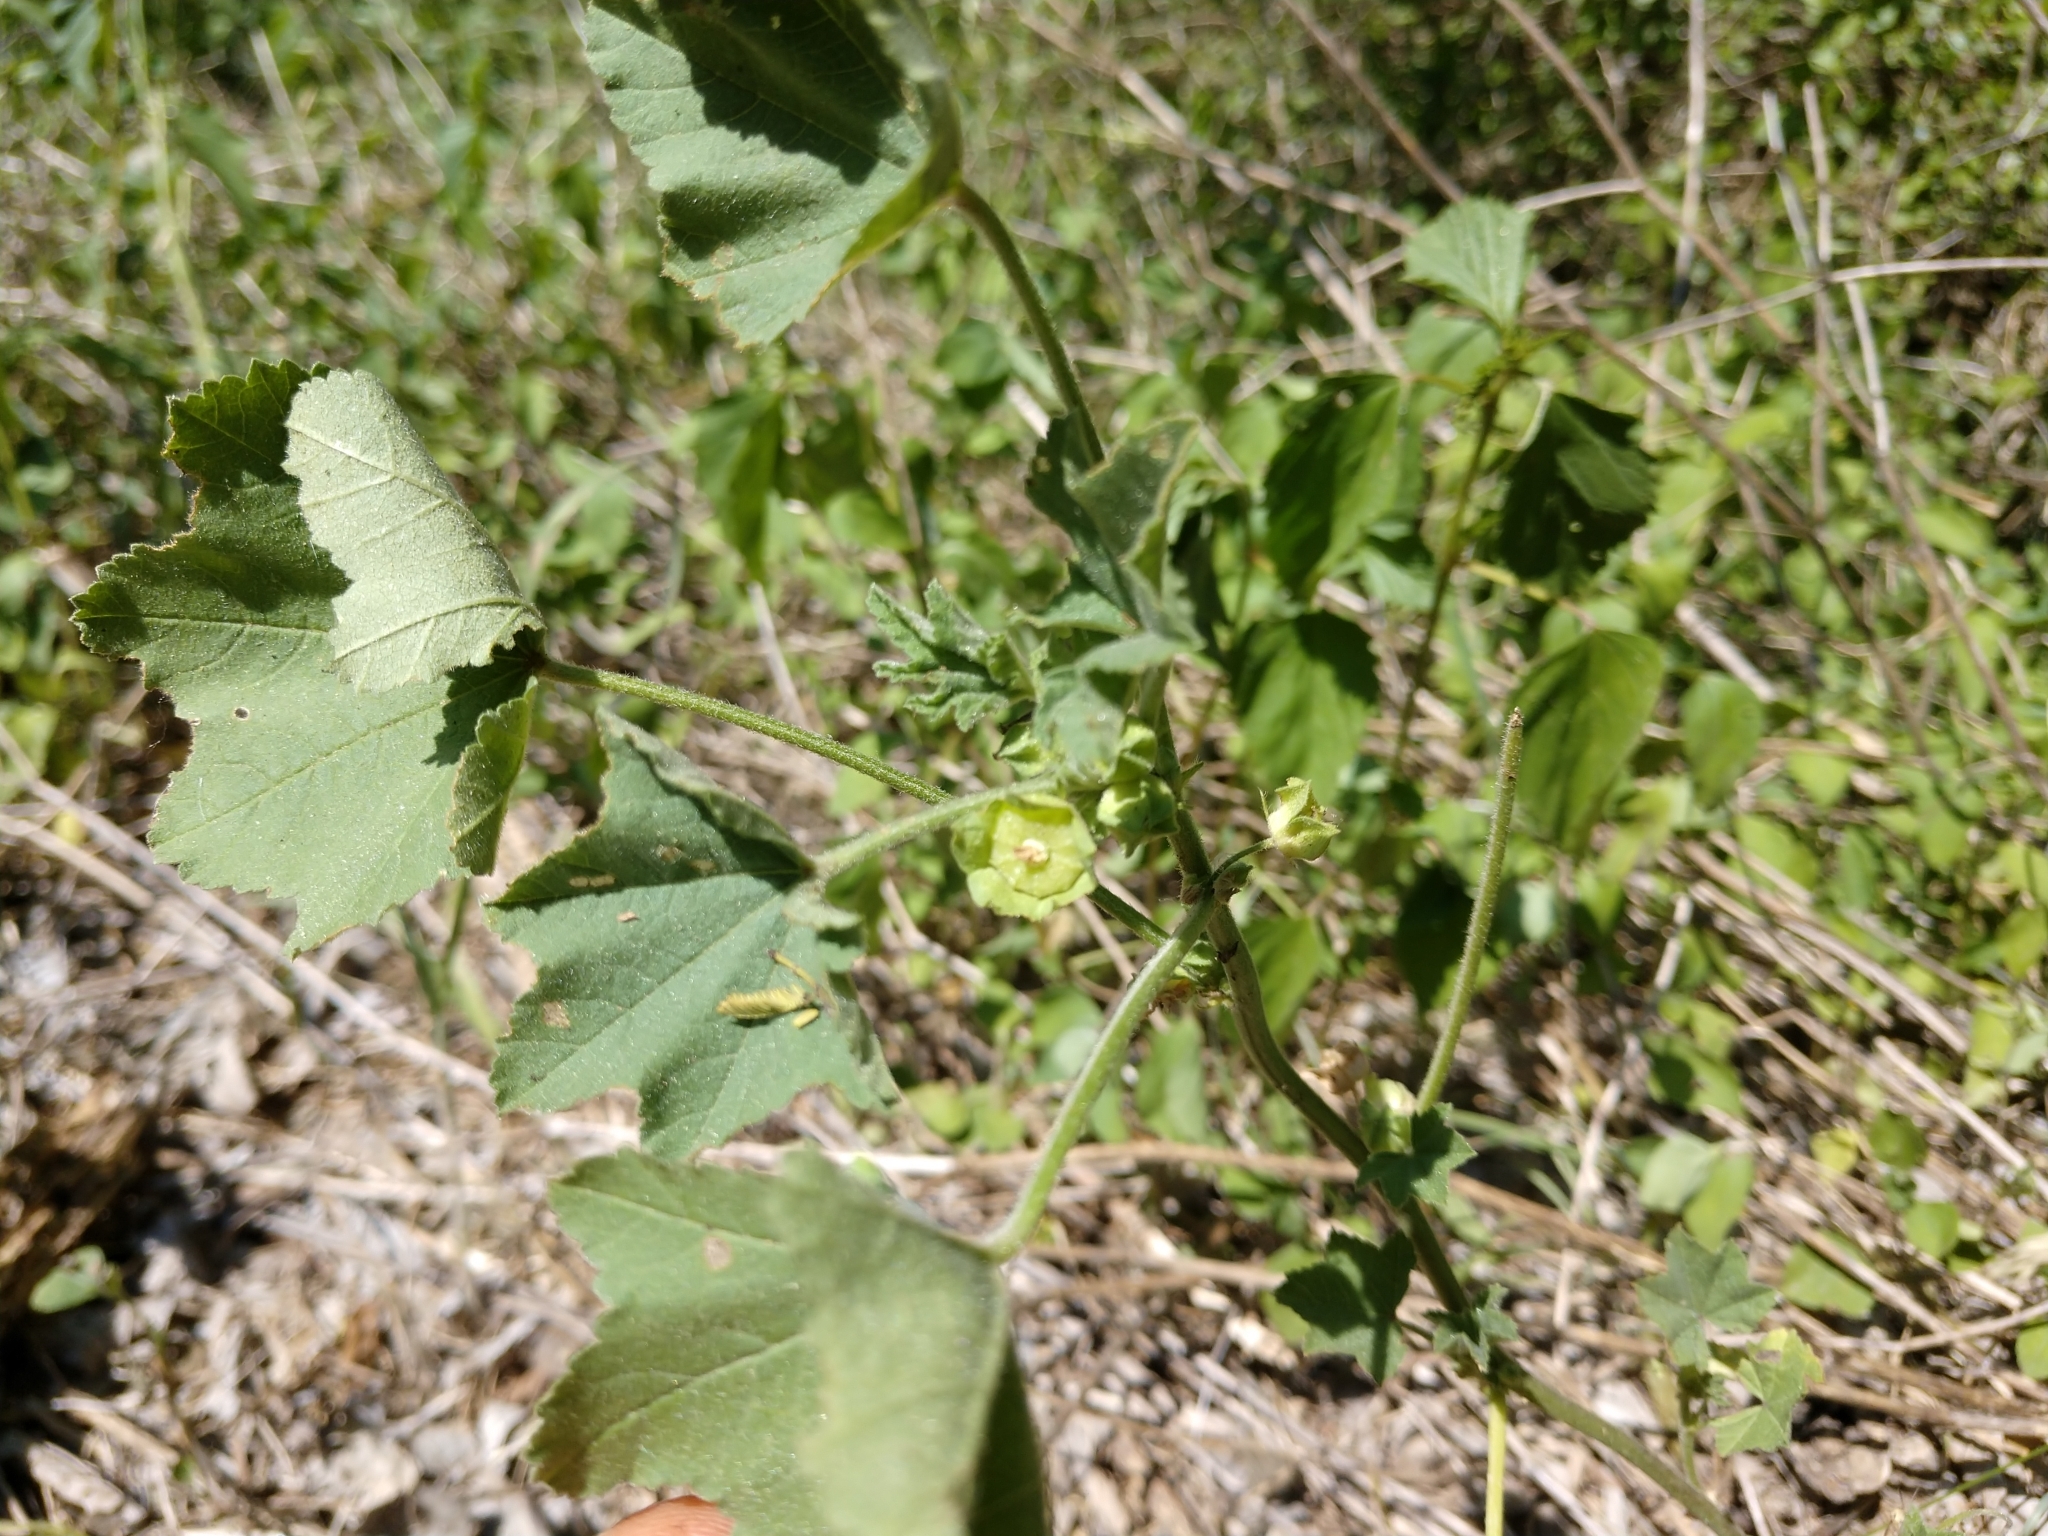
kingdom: Plantae
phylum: Tracheophyta
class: Magnoliopsida
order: Malvales
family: Malvaceae
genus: Malva
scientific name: Malva parviflora
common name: Least mallow
